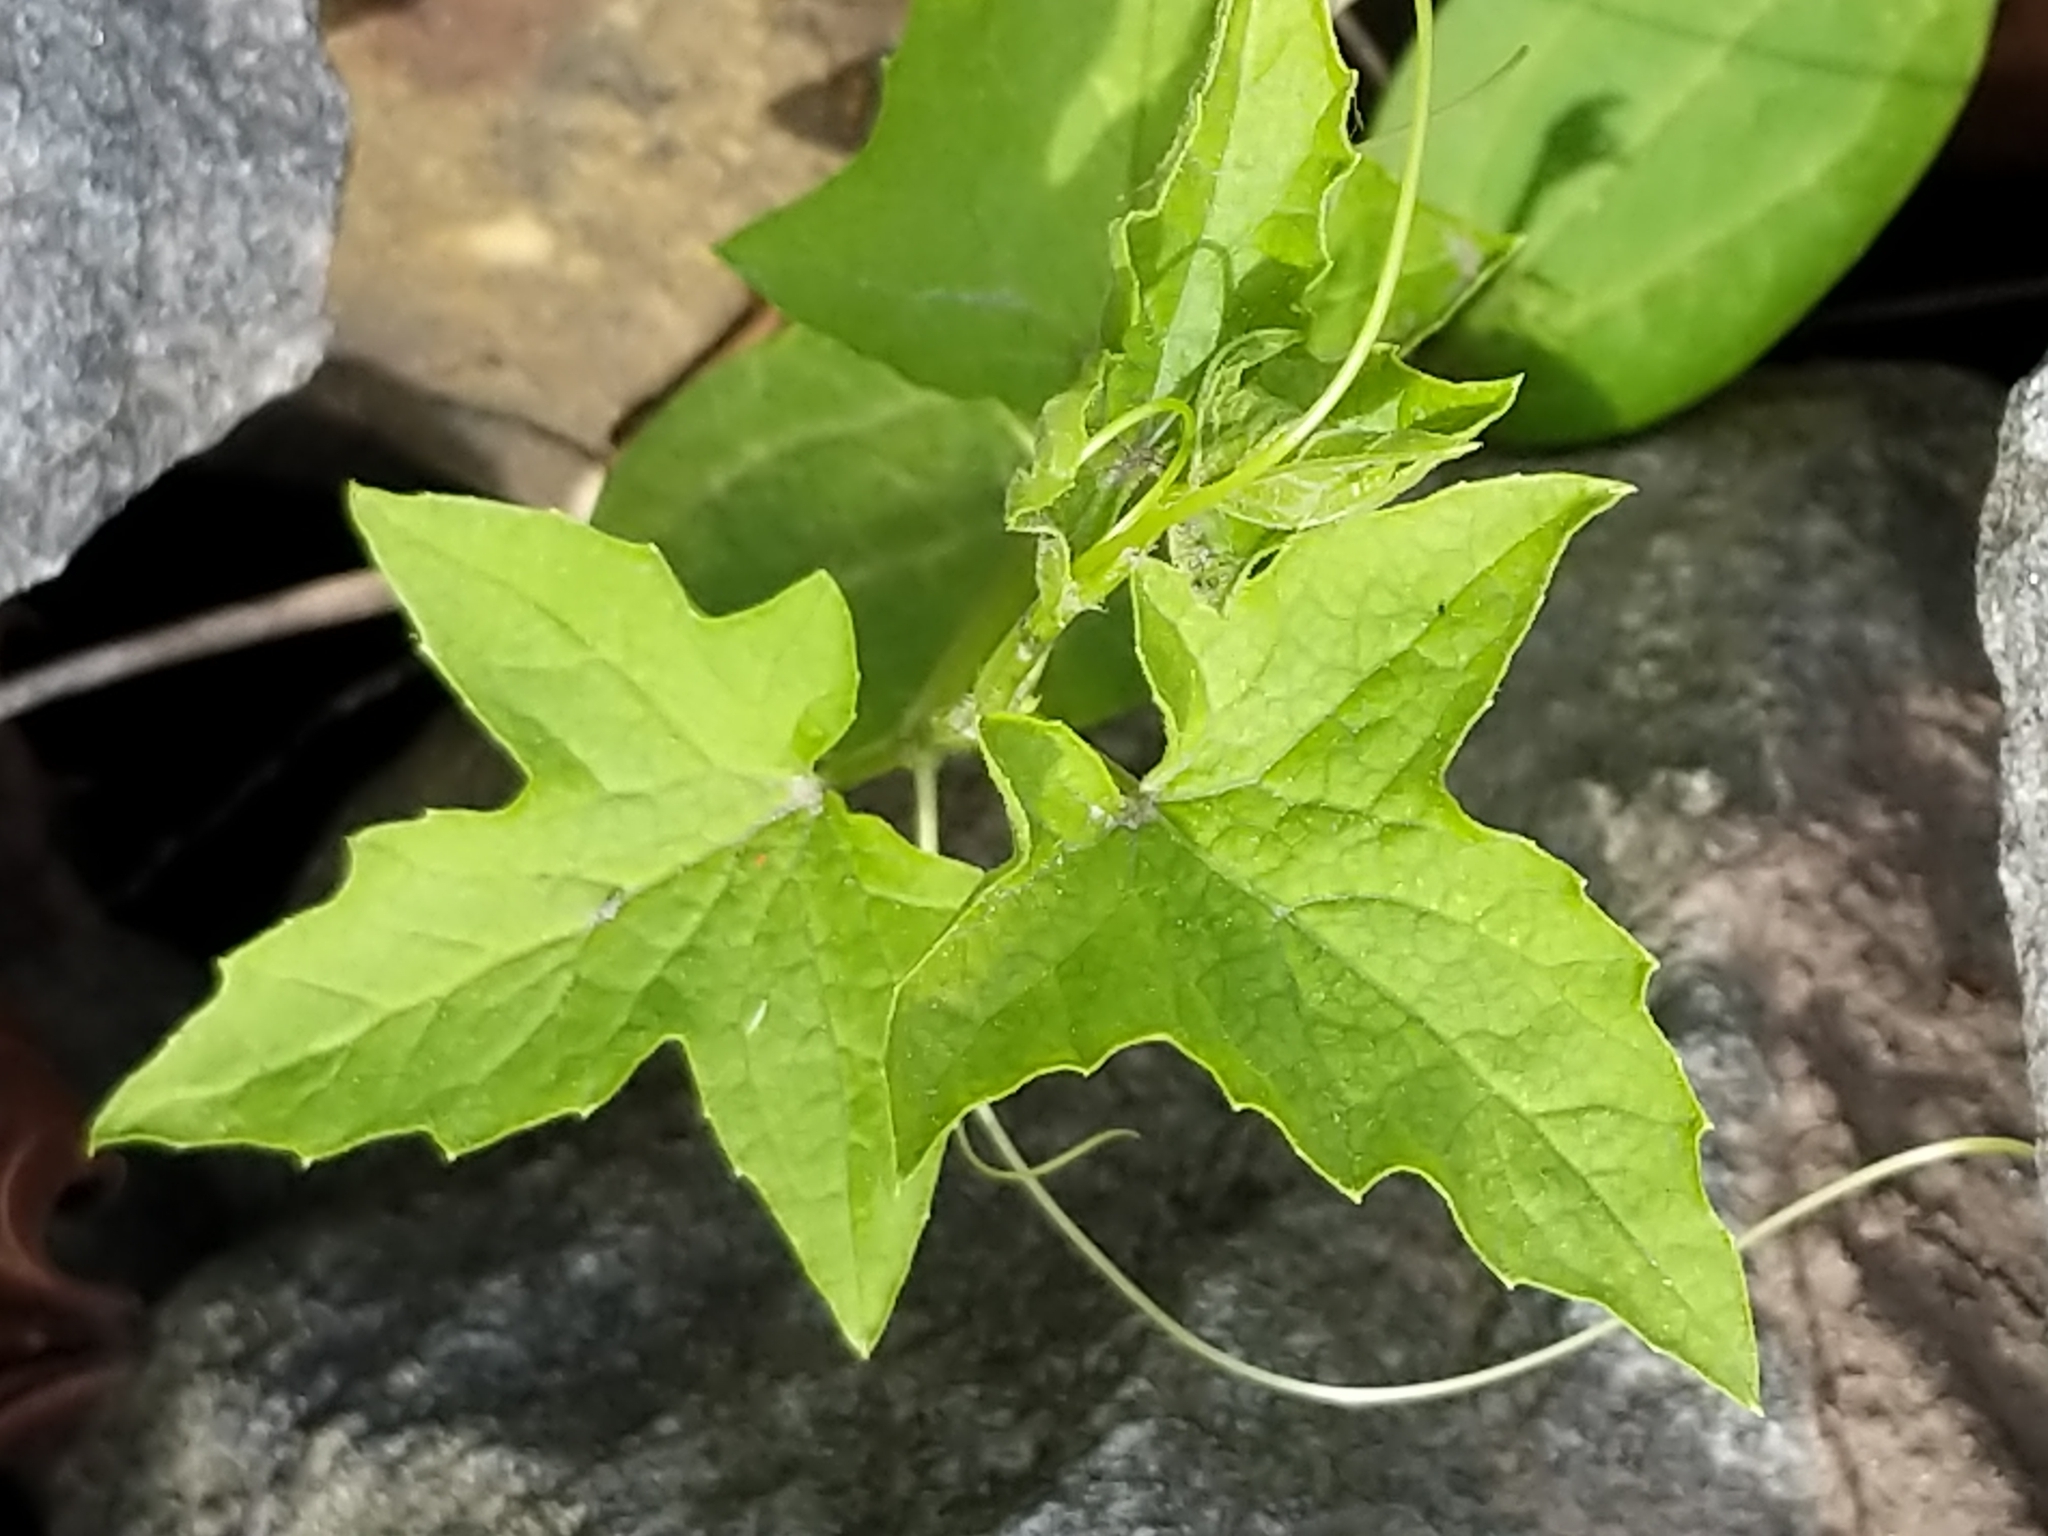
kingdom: Plantae
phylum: Tracheophyta
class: Magnoliopsida
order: Cucurbitales
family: Cucurbitaceae
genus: Echinocystis
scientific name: Echinocystis lobata
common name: Wild cucumber
